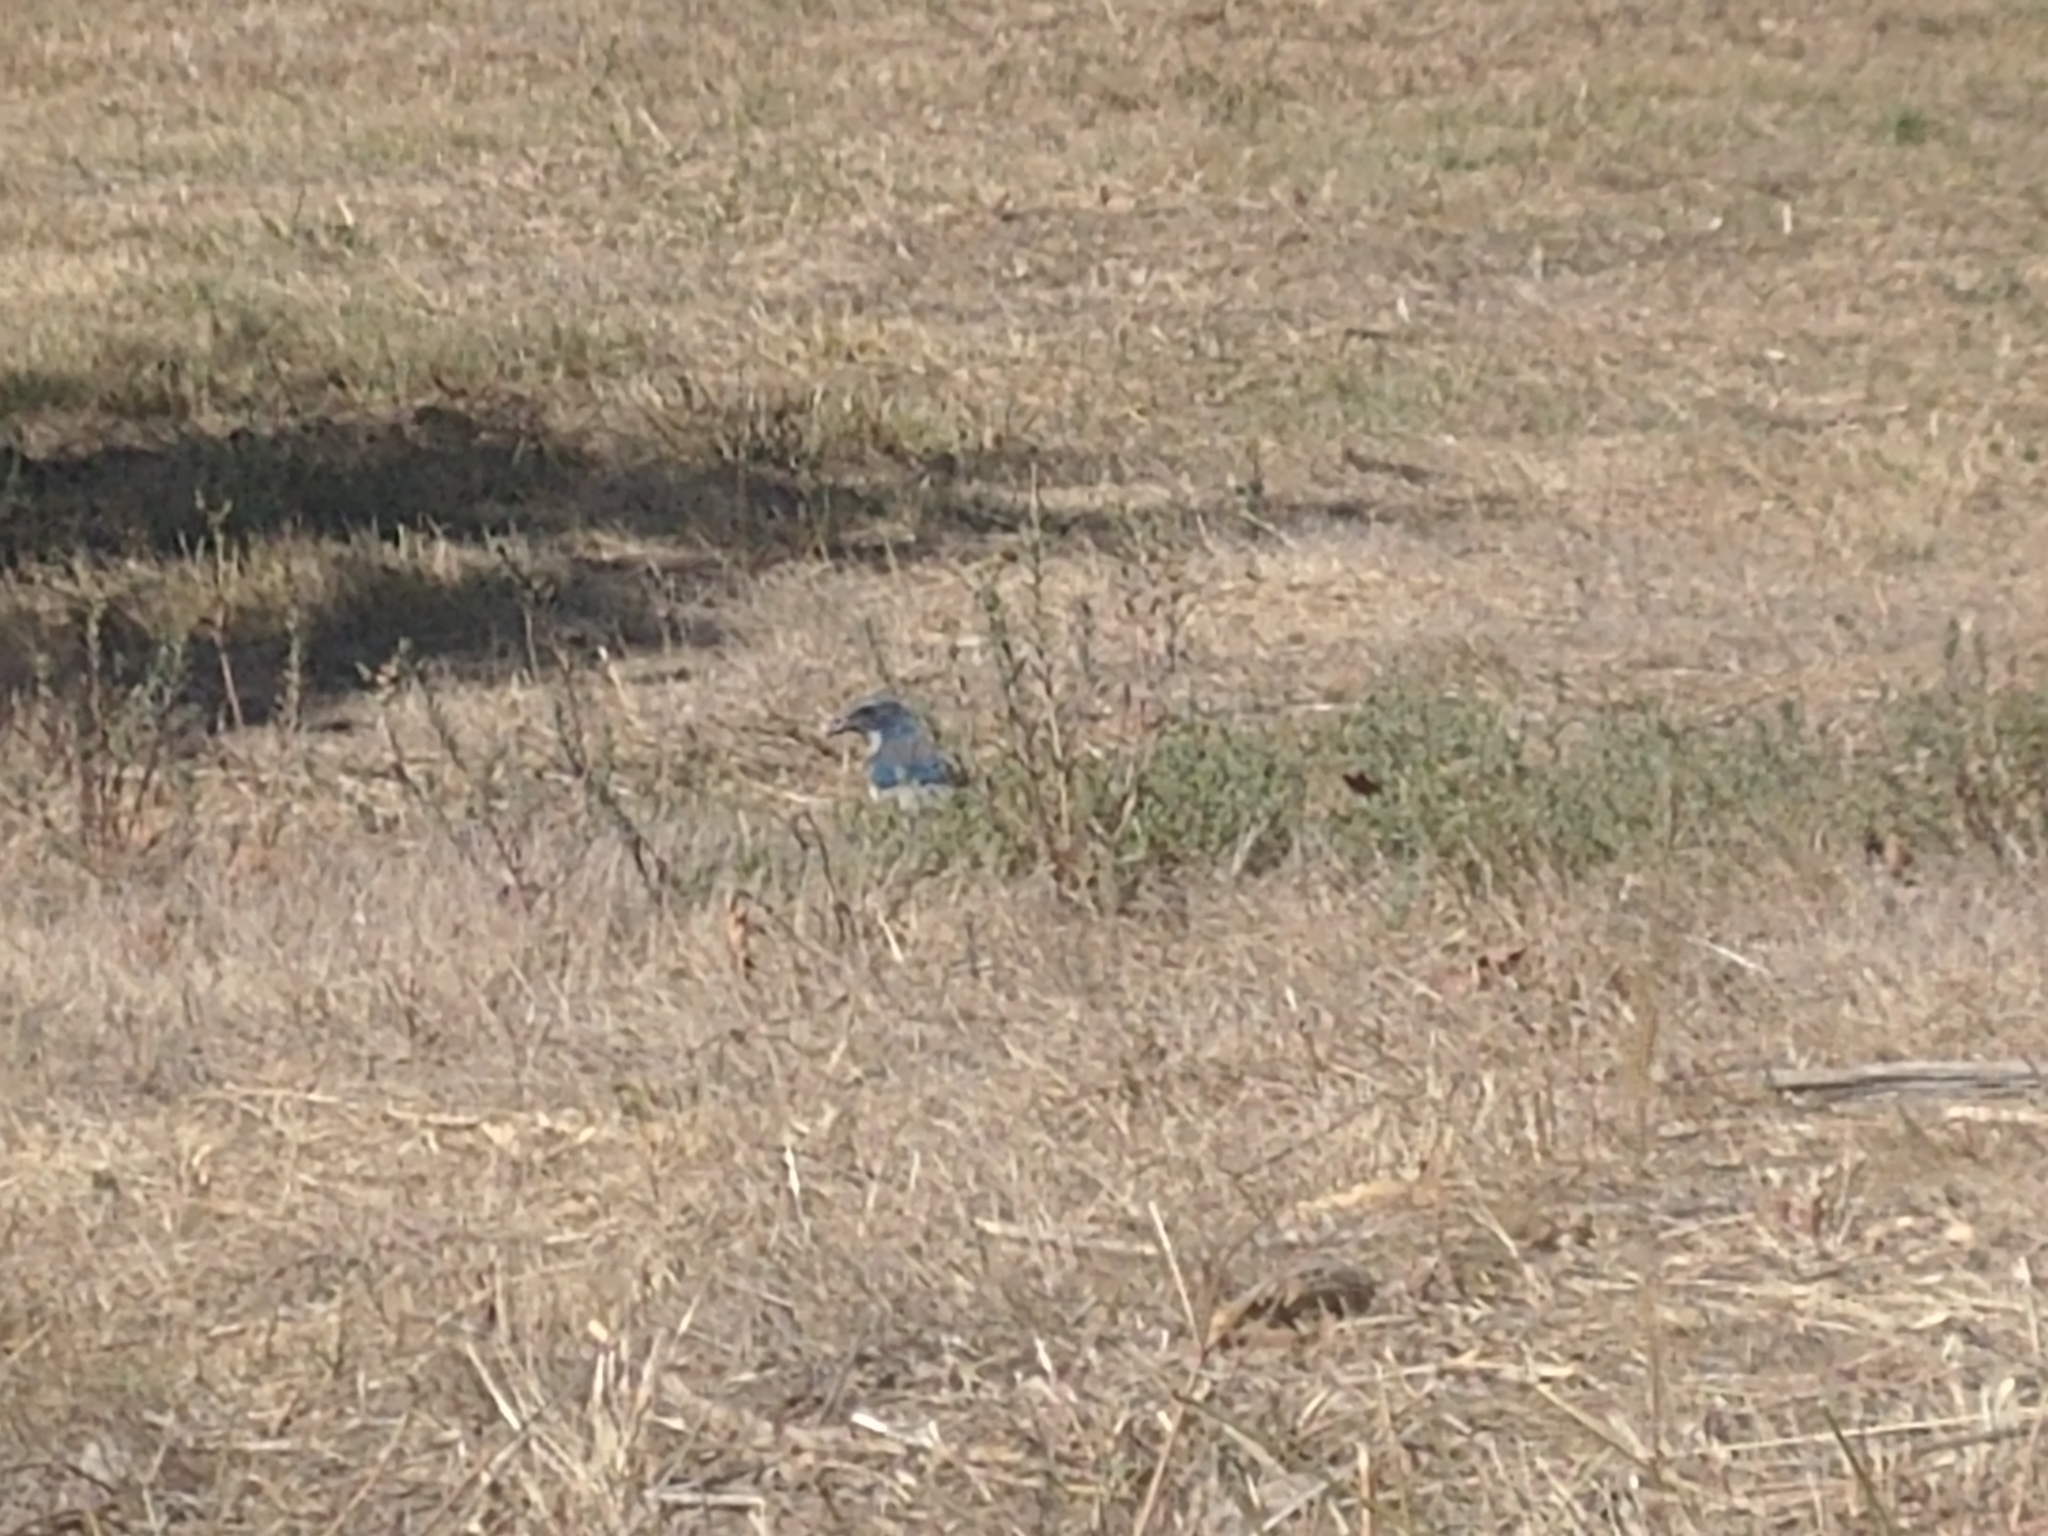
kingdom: Animalia
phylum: Chordata
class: Aves
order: Passeriformes
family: Corvidae
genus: Aphelocoma
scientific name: Aphelocoma californica
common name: California scrub-jay
